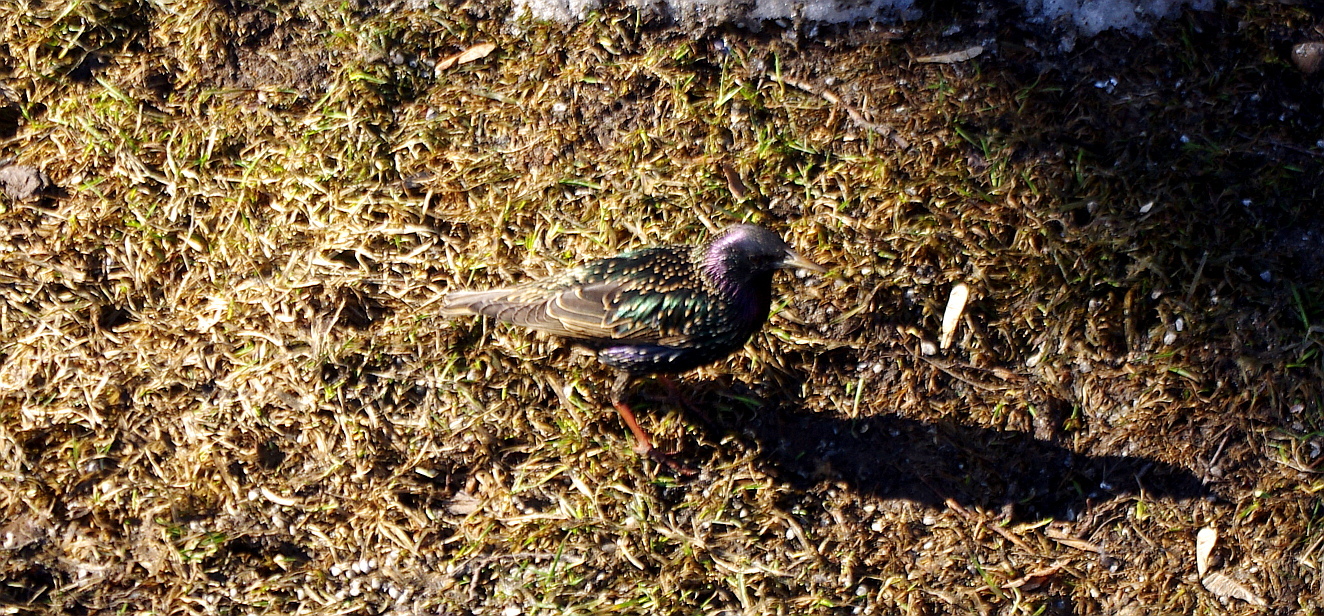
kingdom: Animalia
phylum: Chordata
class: Aves
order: Passeriformes
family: Sturnidae
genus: Sturnus
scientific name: Sturnus vulgaris
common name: Common starling
